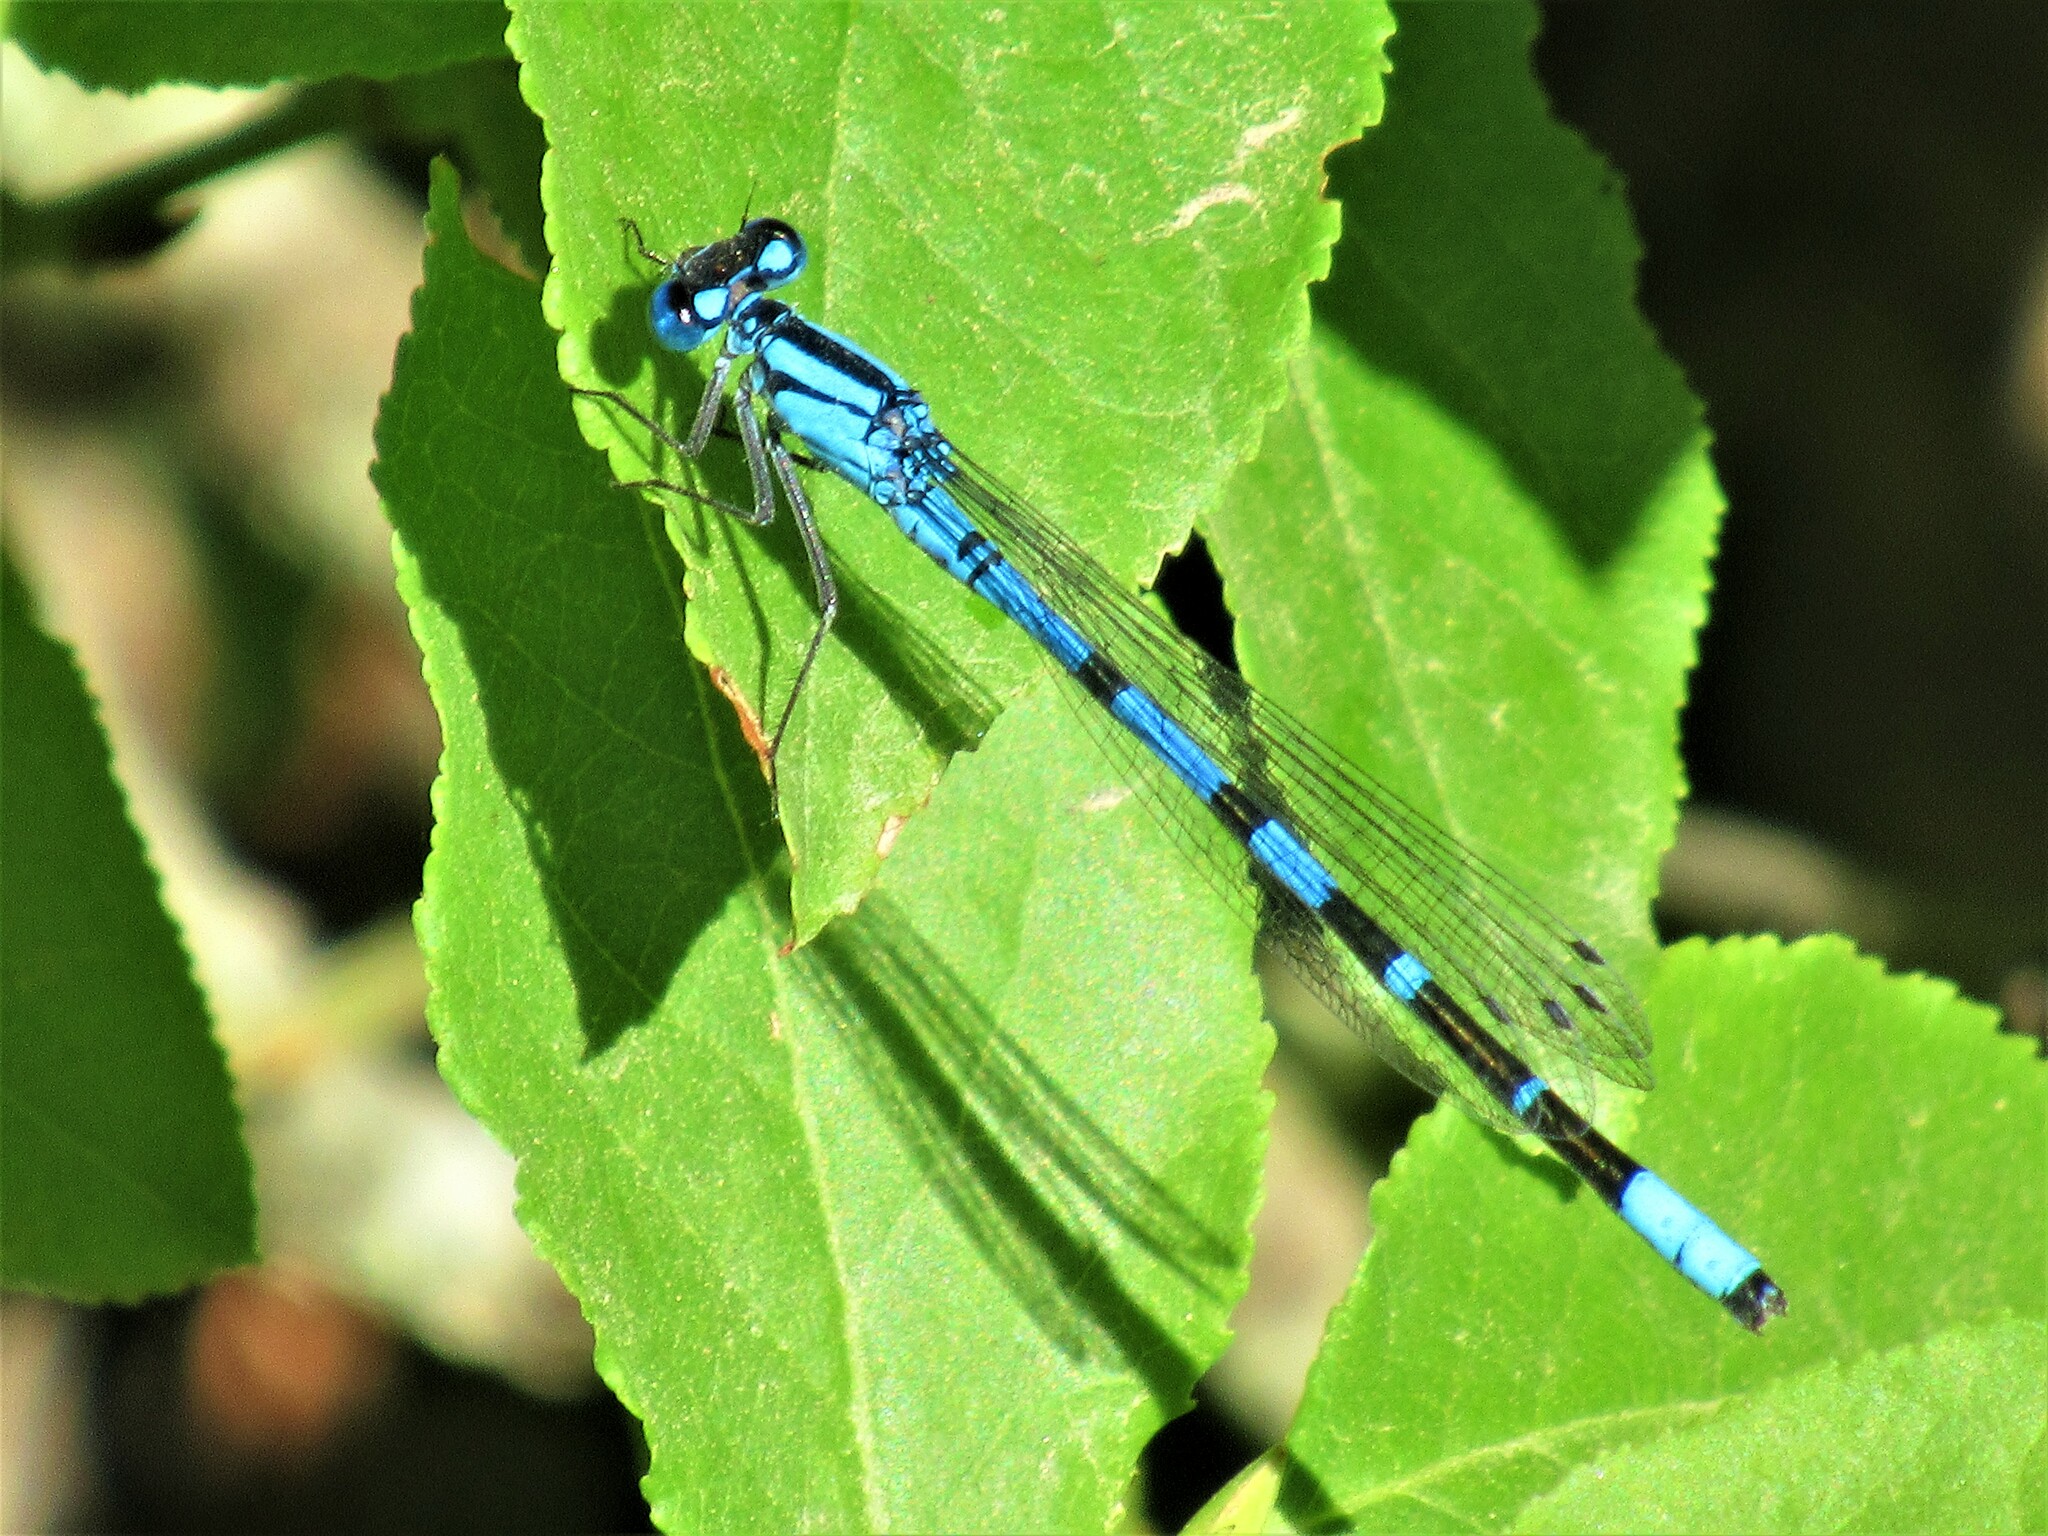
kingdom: Animalia
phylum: Arthropoda
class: Insecta
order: Odonata
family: Coenagrionidae
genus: Enallagma
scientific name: Enallagma boreale
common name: Boreal bluet
